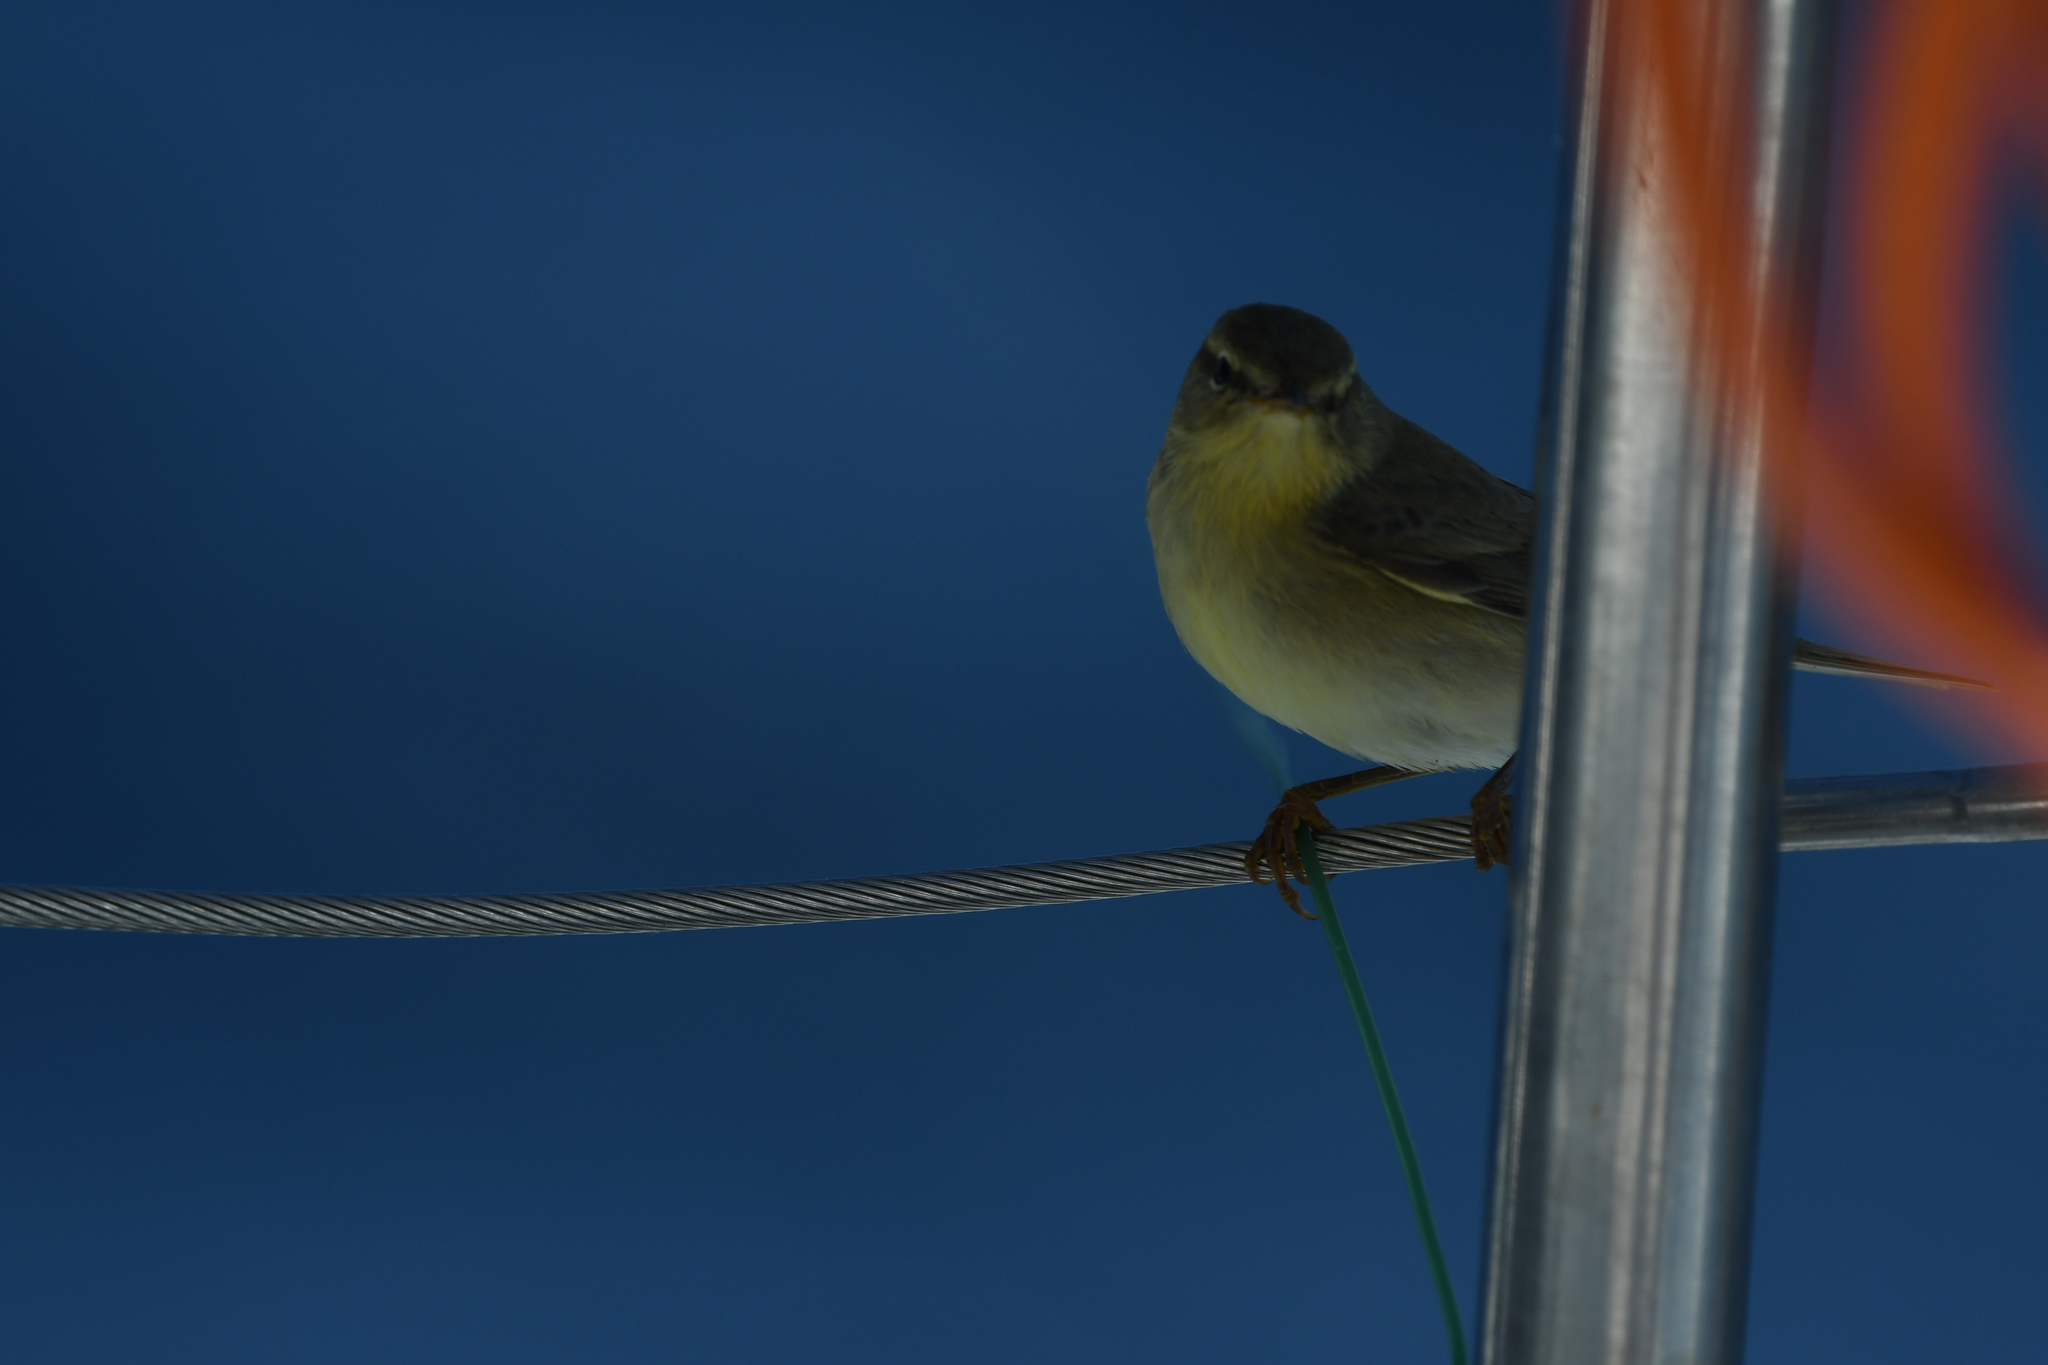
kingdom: Animalia
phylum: Chordata
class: Aves
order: Passeriformes
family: Phylloscopidae
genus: Phylloscopus
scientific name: Phylloscopus trochilus
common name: Willow warbler
